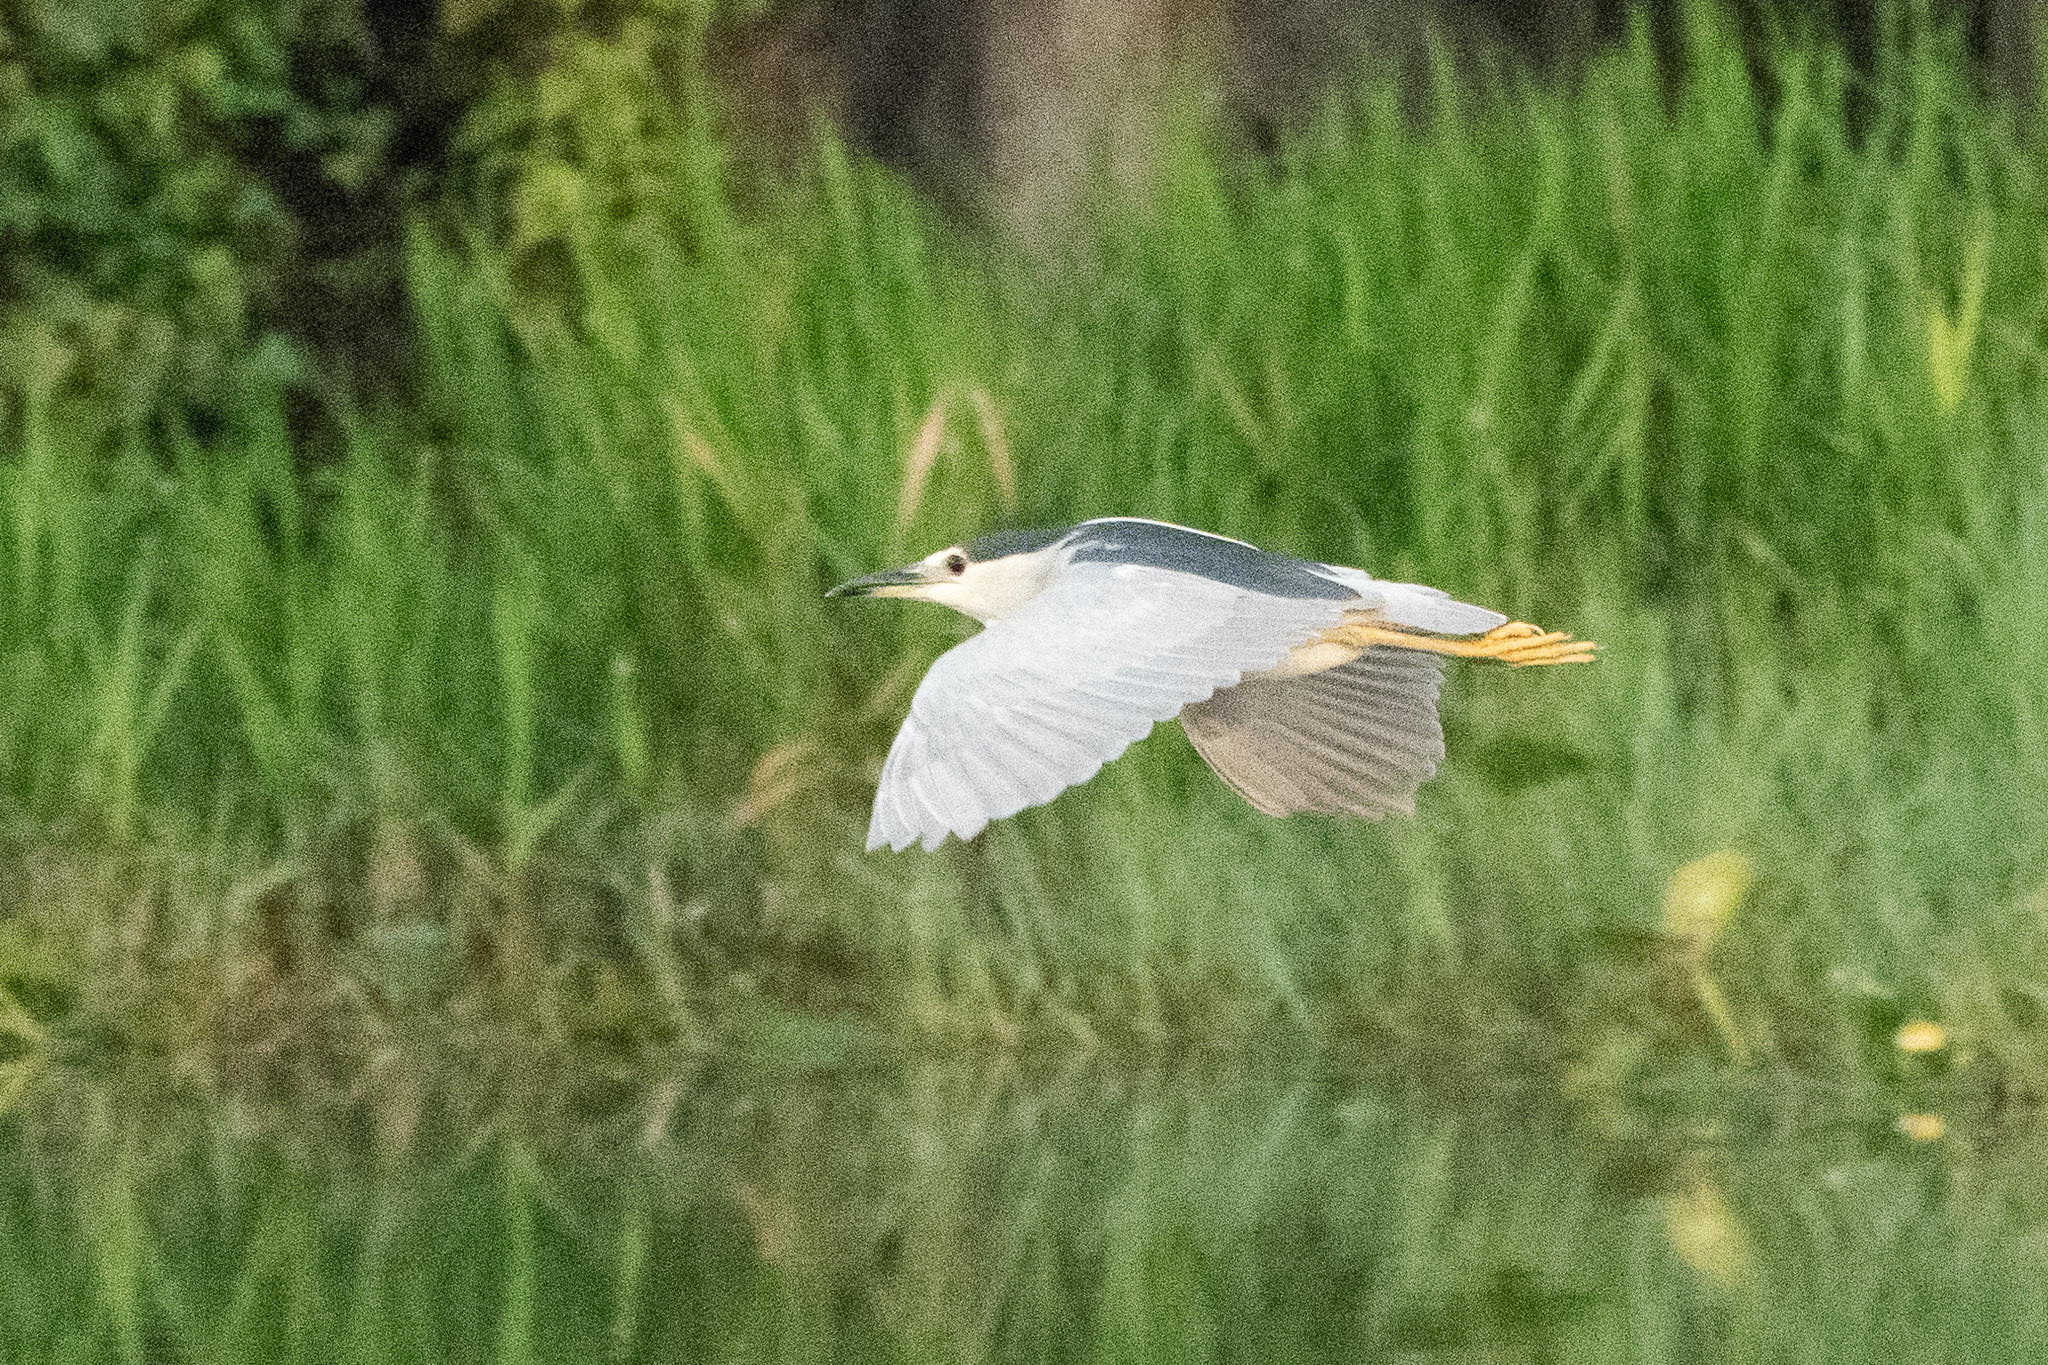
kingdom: Animalia
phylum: Chordata
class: Aves
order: Pelecaniformes
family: Ardeidae
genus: Nycticorax
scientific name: Nycticorax nycticorax
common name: Black-crowned night heron
